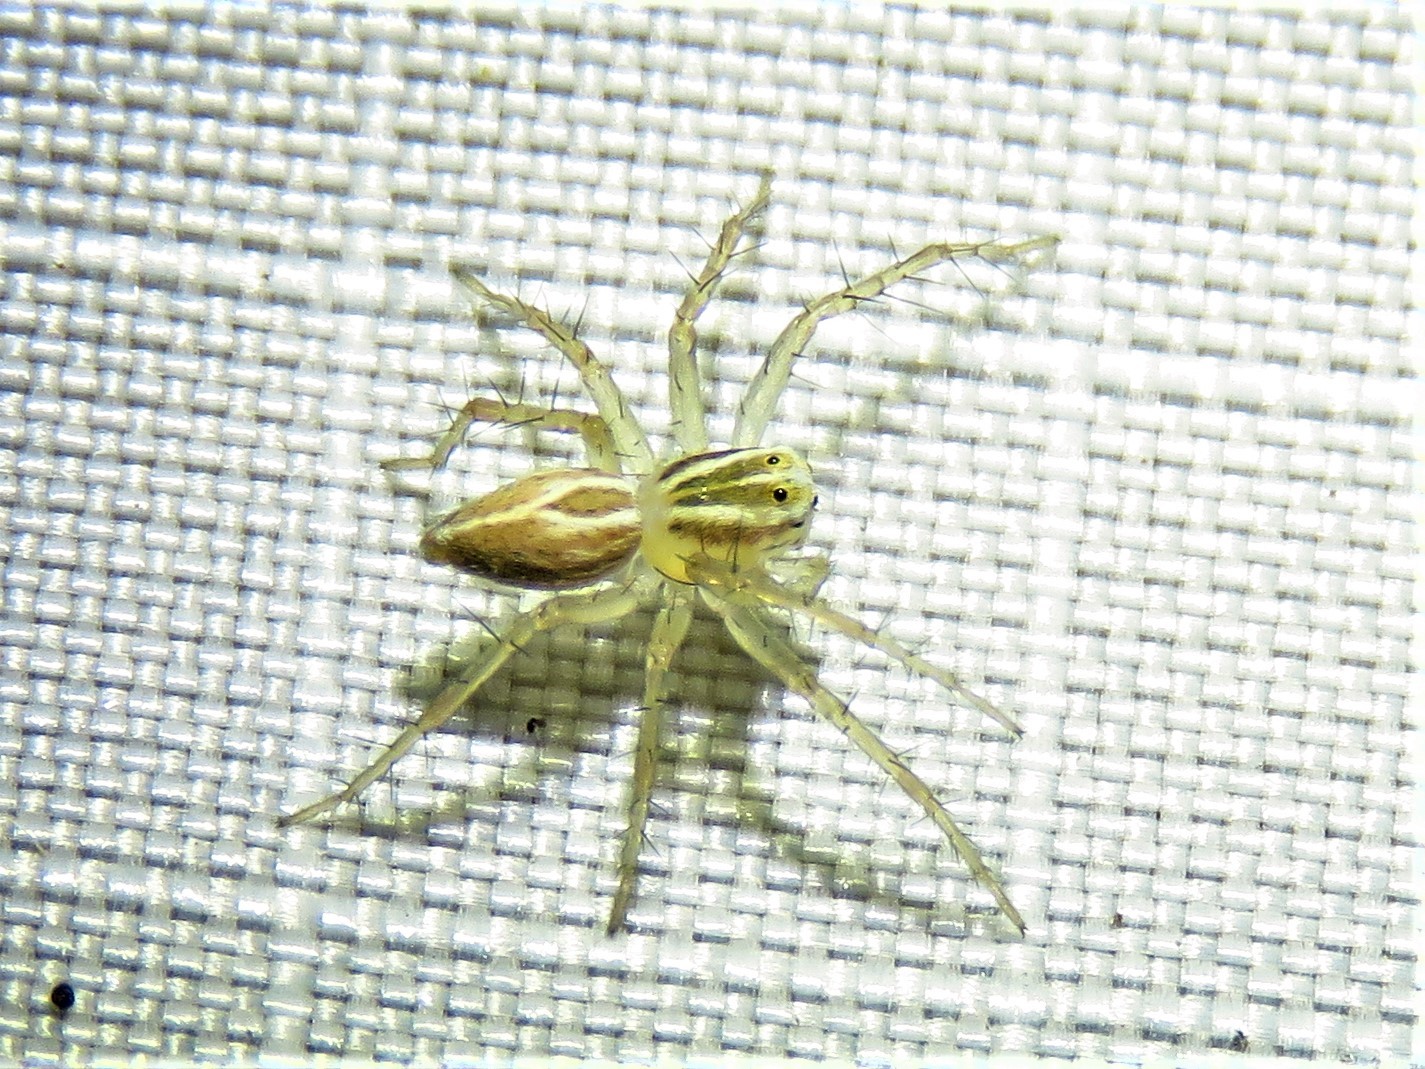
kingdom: Animalia
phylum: Arthropoda
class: Arachnida
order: Araneae
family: Oxyopidae
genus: Oxyopes
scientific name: Oxyopes salticus
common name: Lynx spiders
